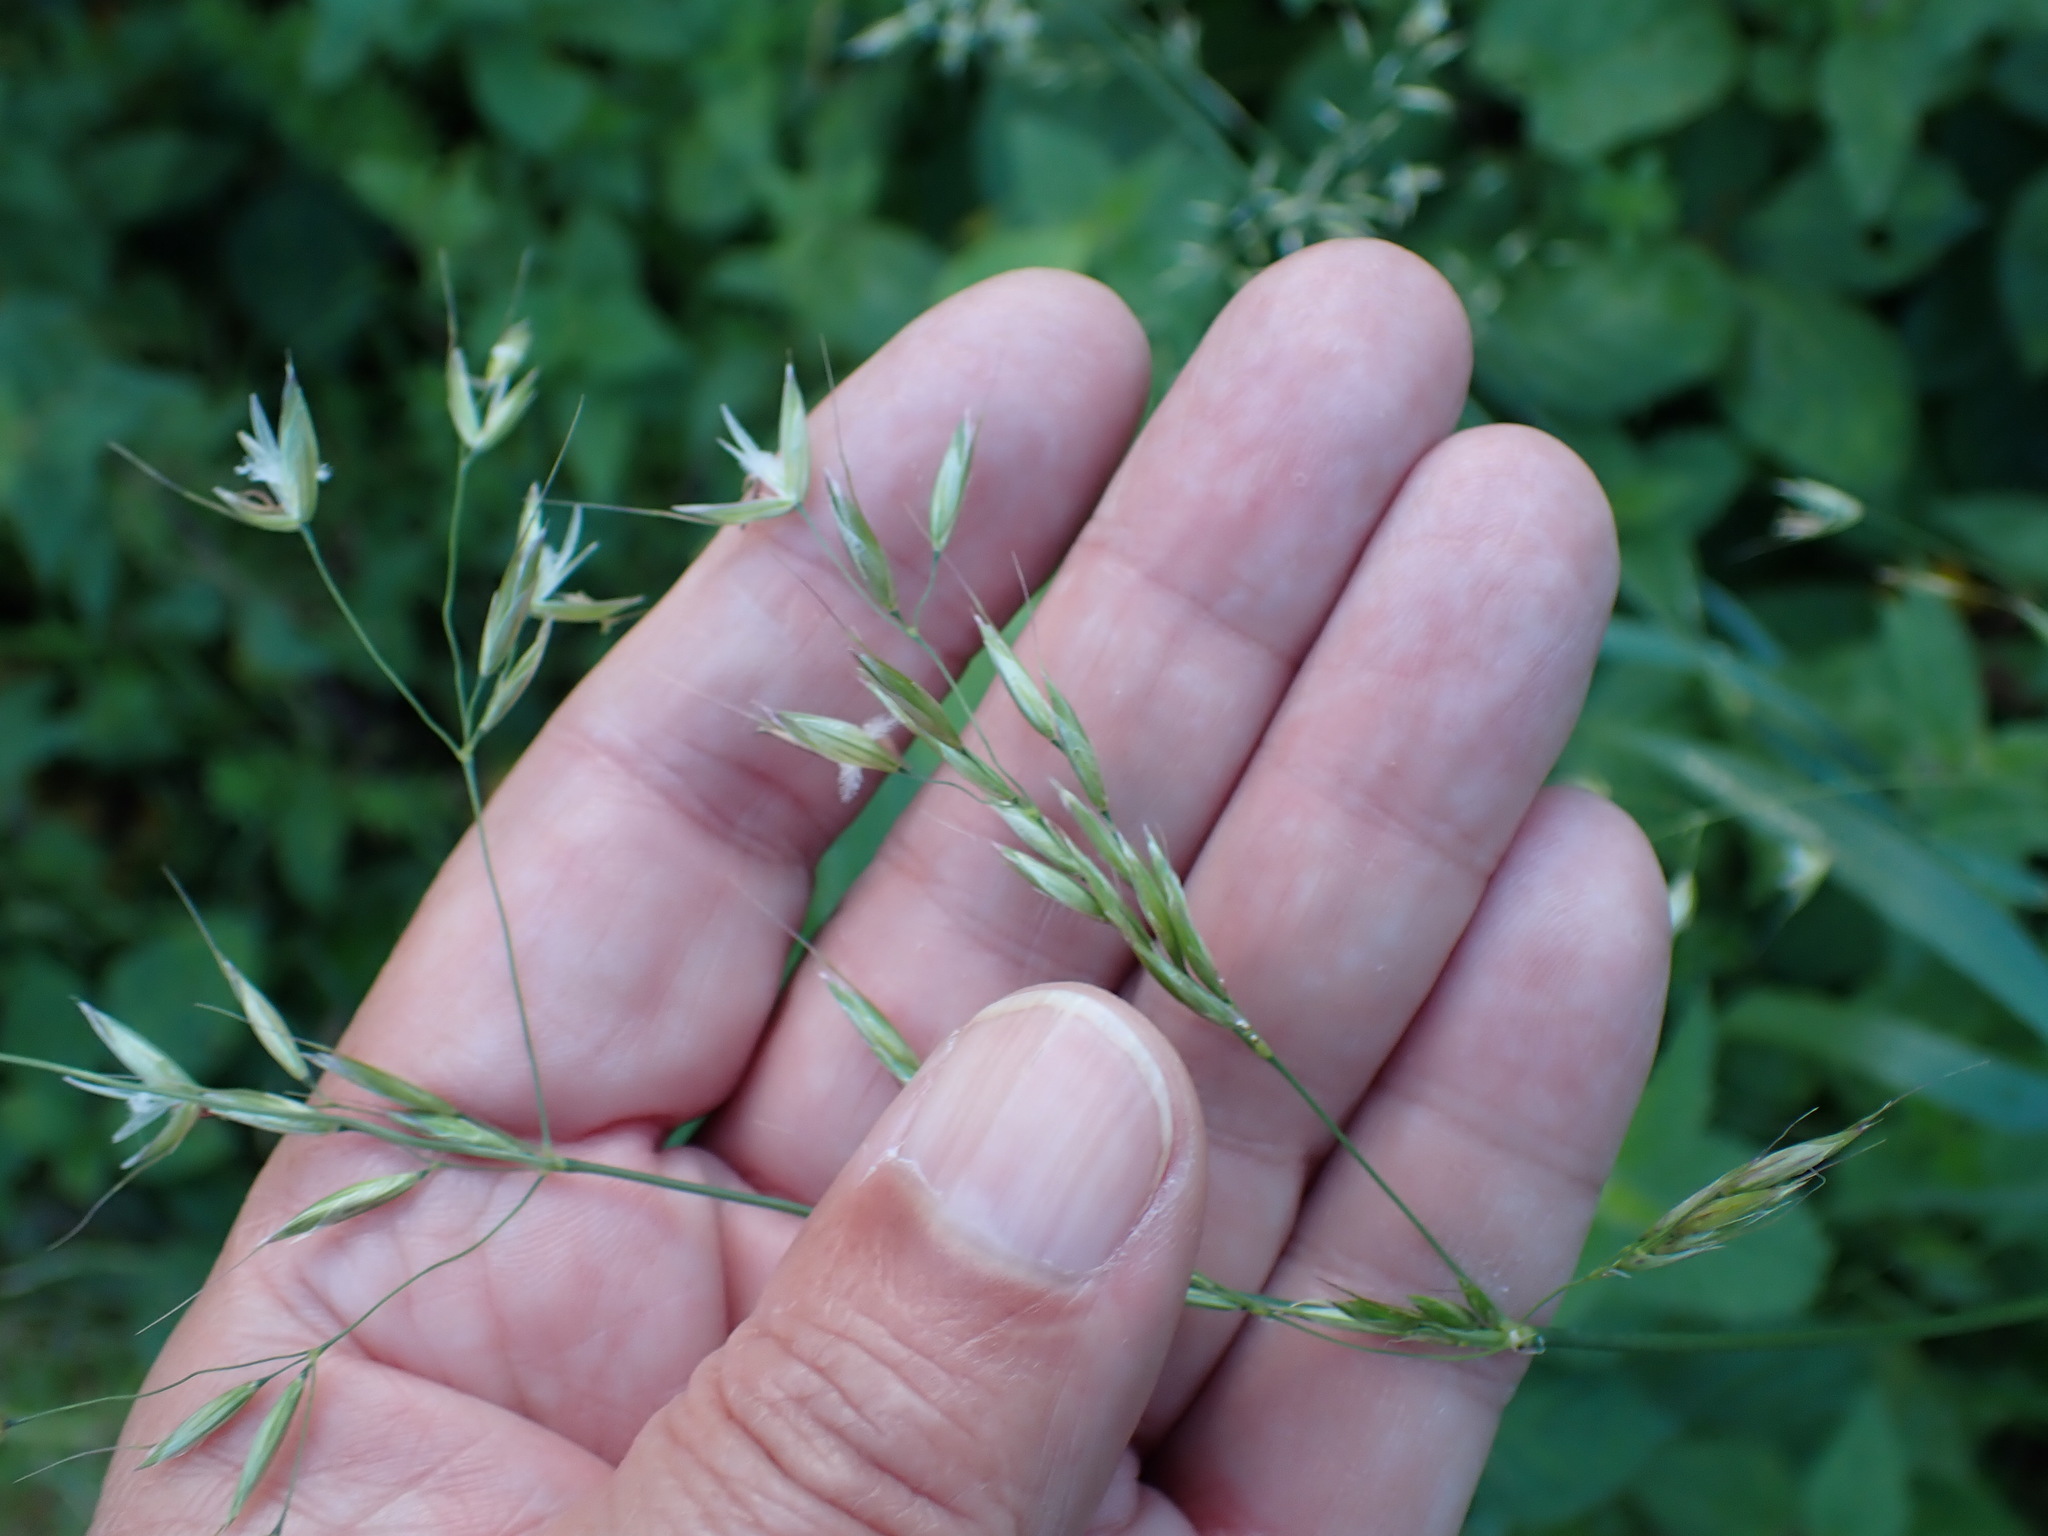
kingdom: Plantae
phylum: Tracheophyta
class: Liliopsida
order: Poales
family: Poaceae
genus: Arrhenatherum
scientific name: Arrhenatherum elatius
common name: Tall oatgrass
